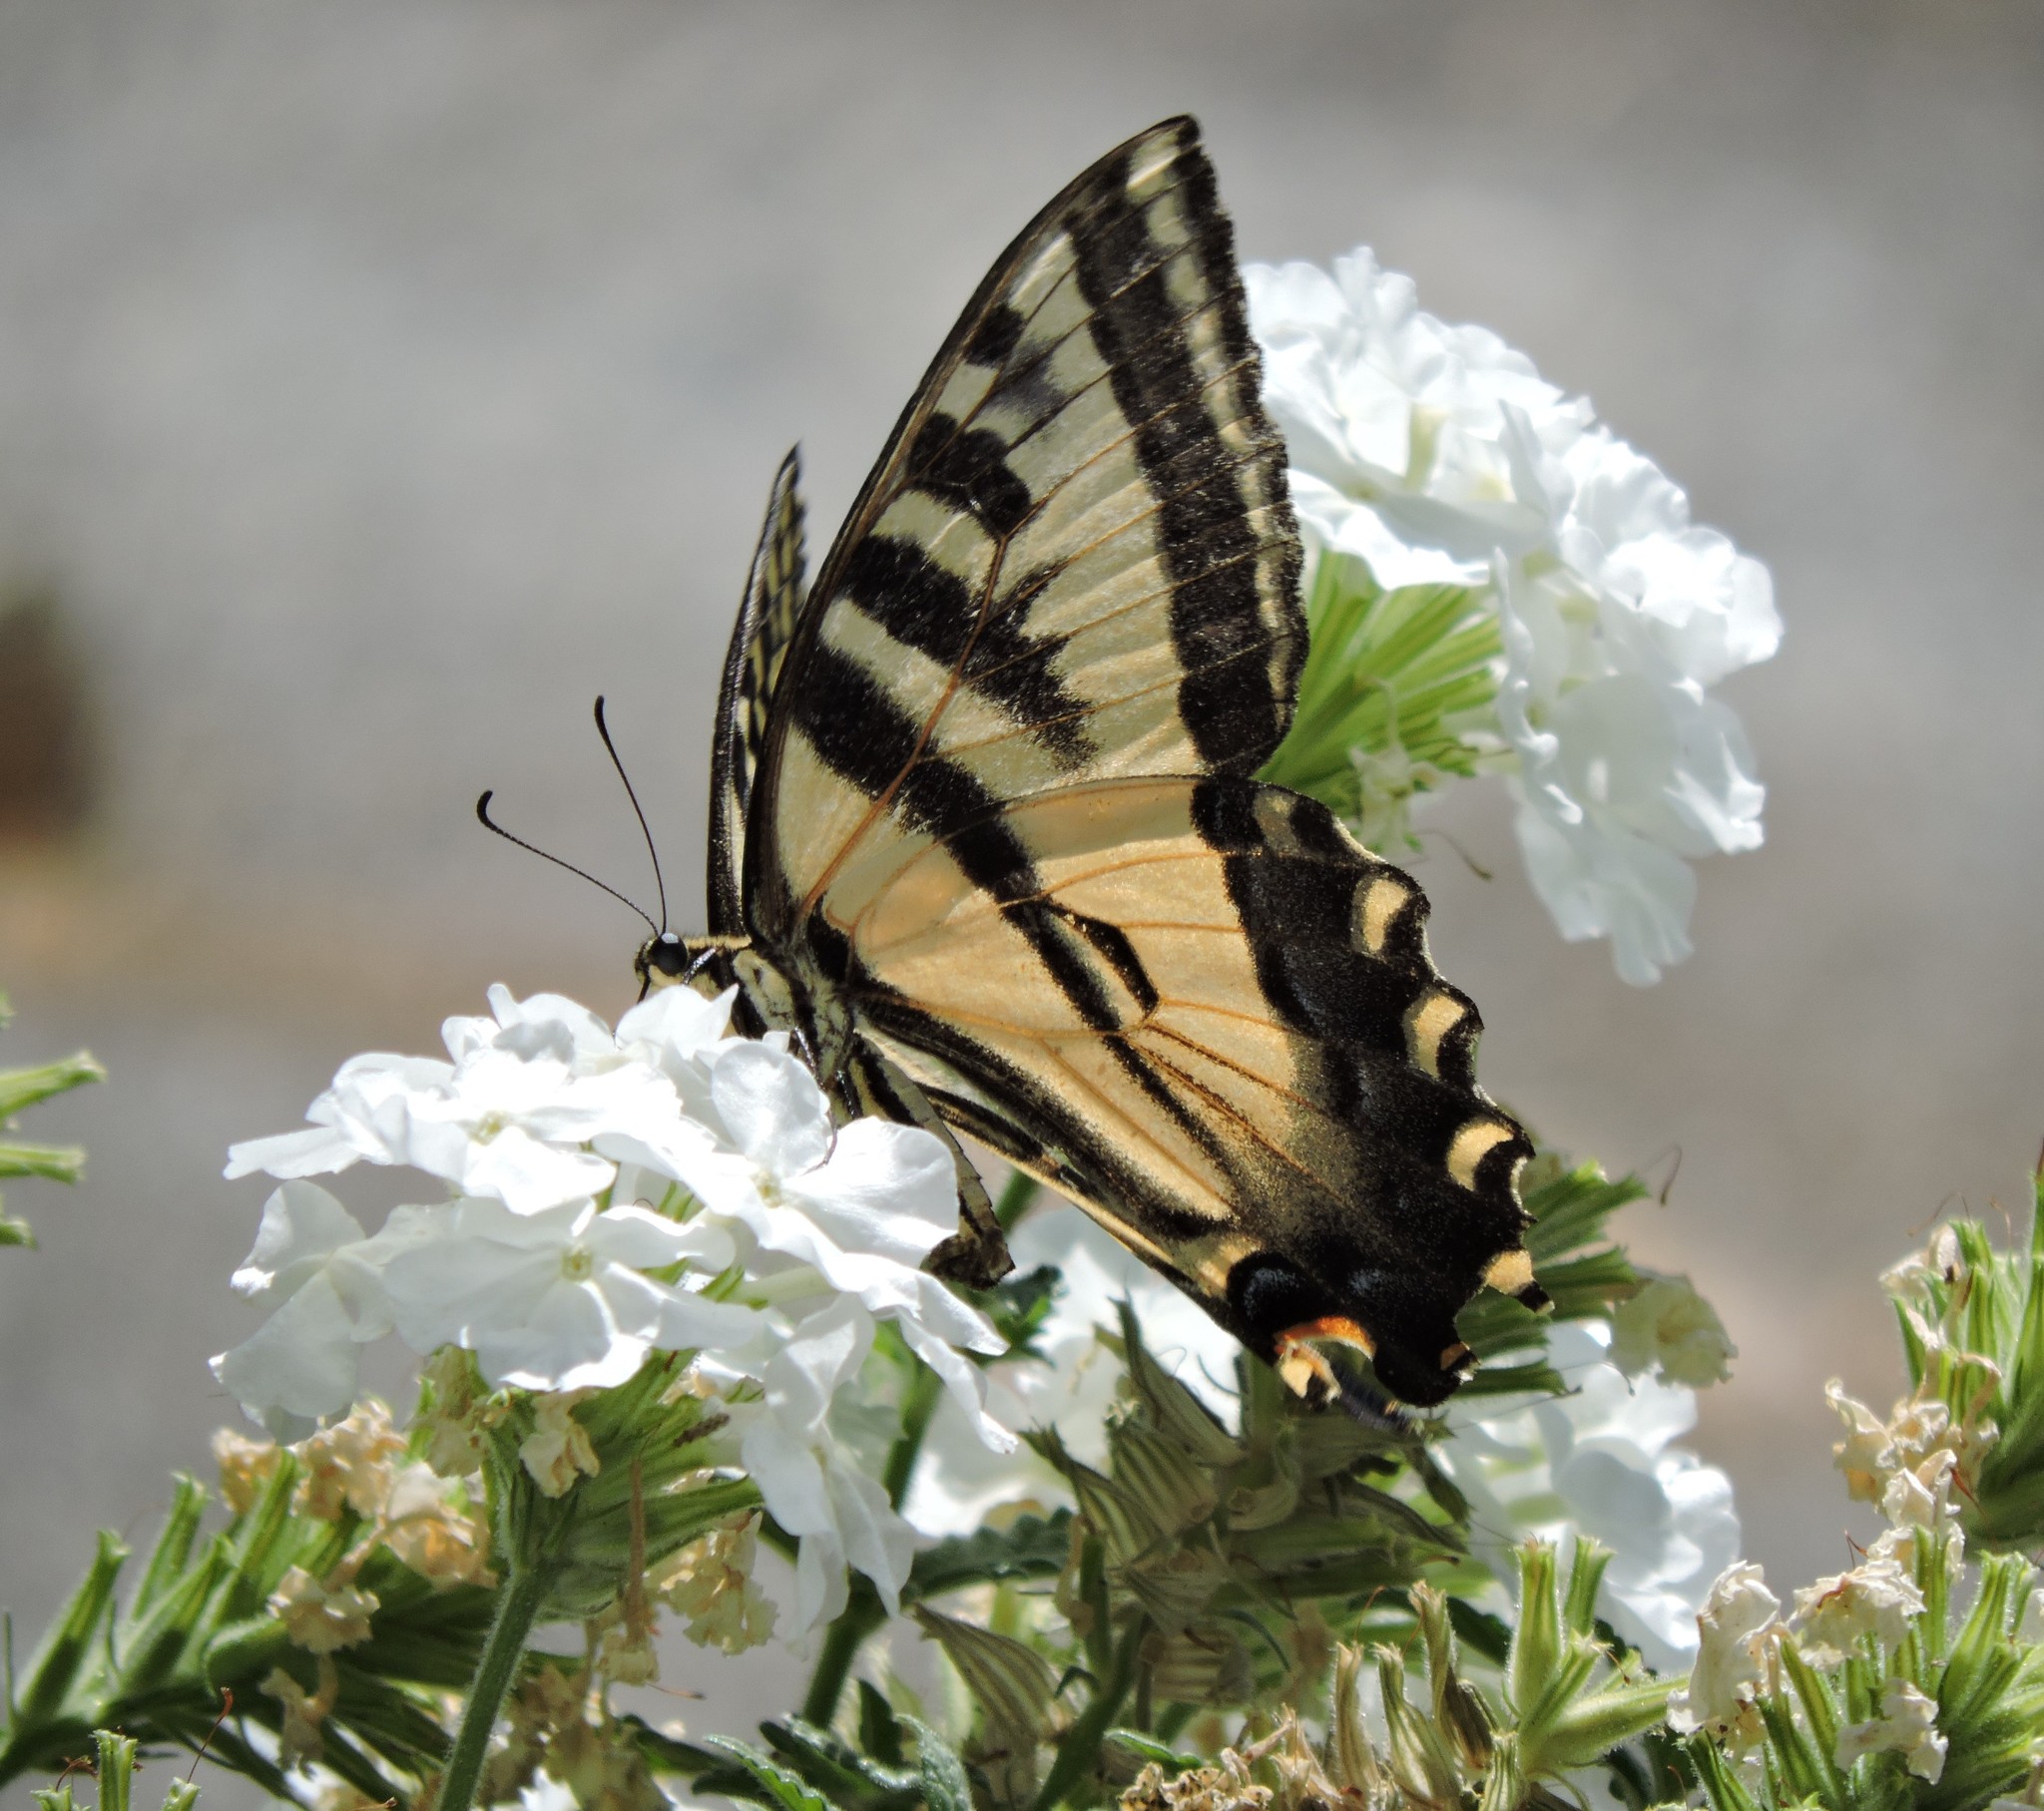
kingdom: Animalia
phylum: Arthropoda
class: Insecta
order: Lepidoptera
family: Papilionidae
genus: Papilio
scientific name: Papilio rutulus
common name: Western tiger swallowtail
